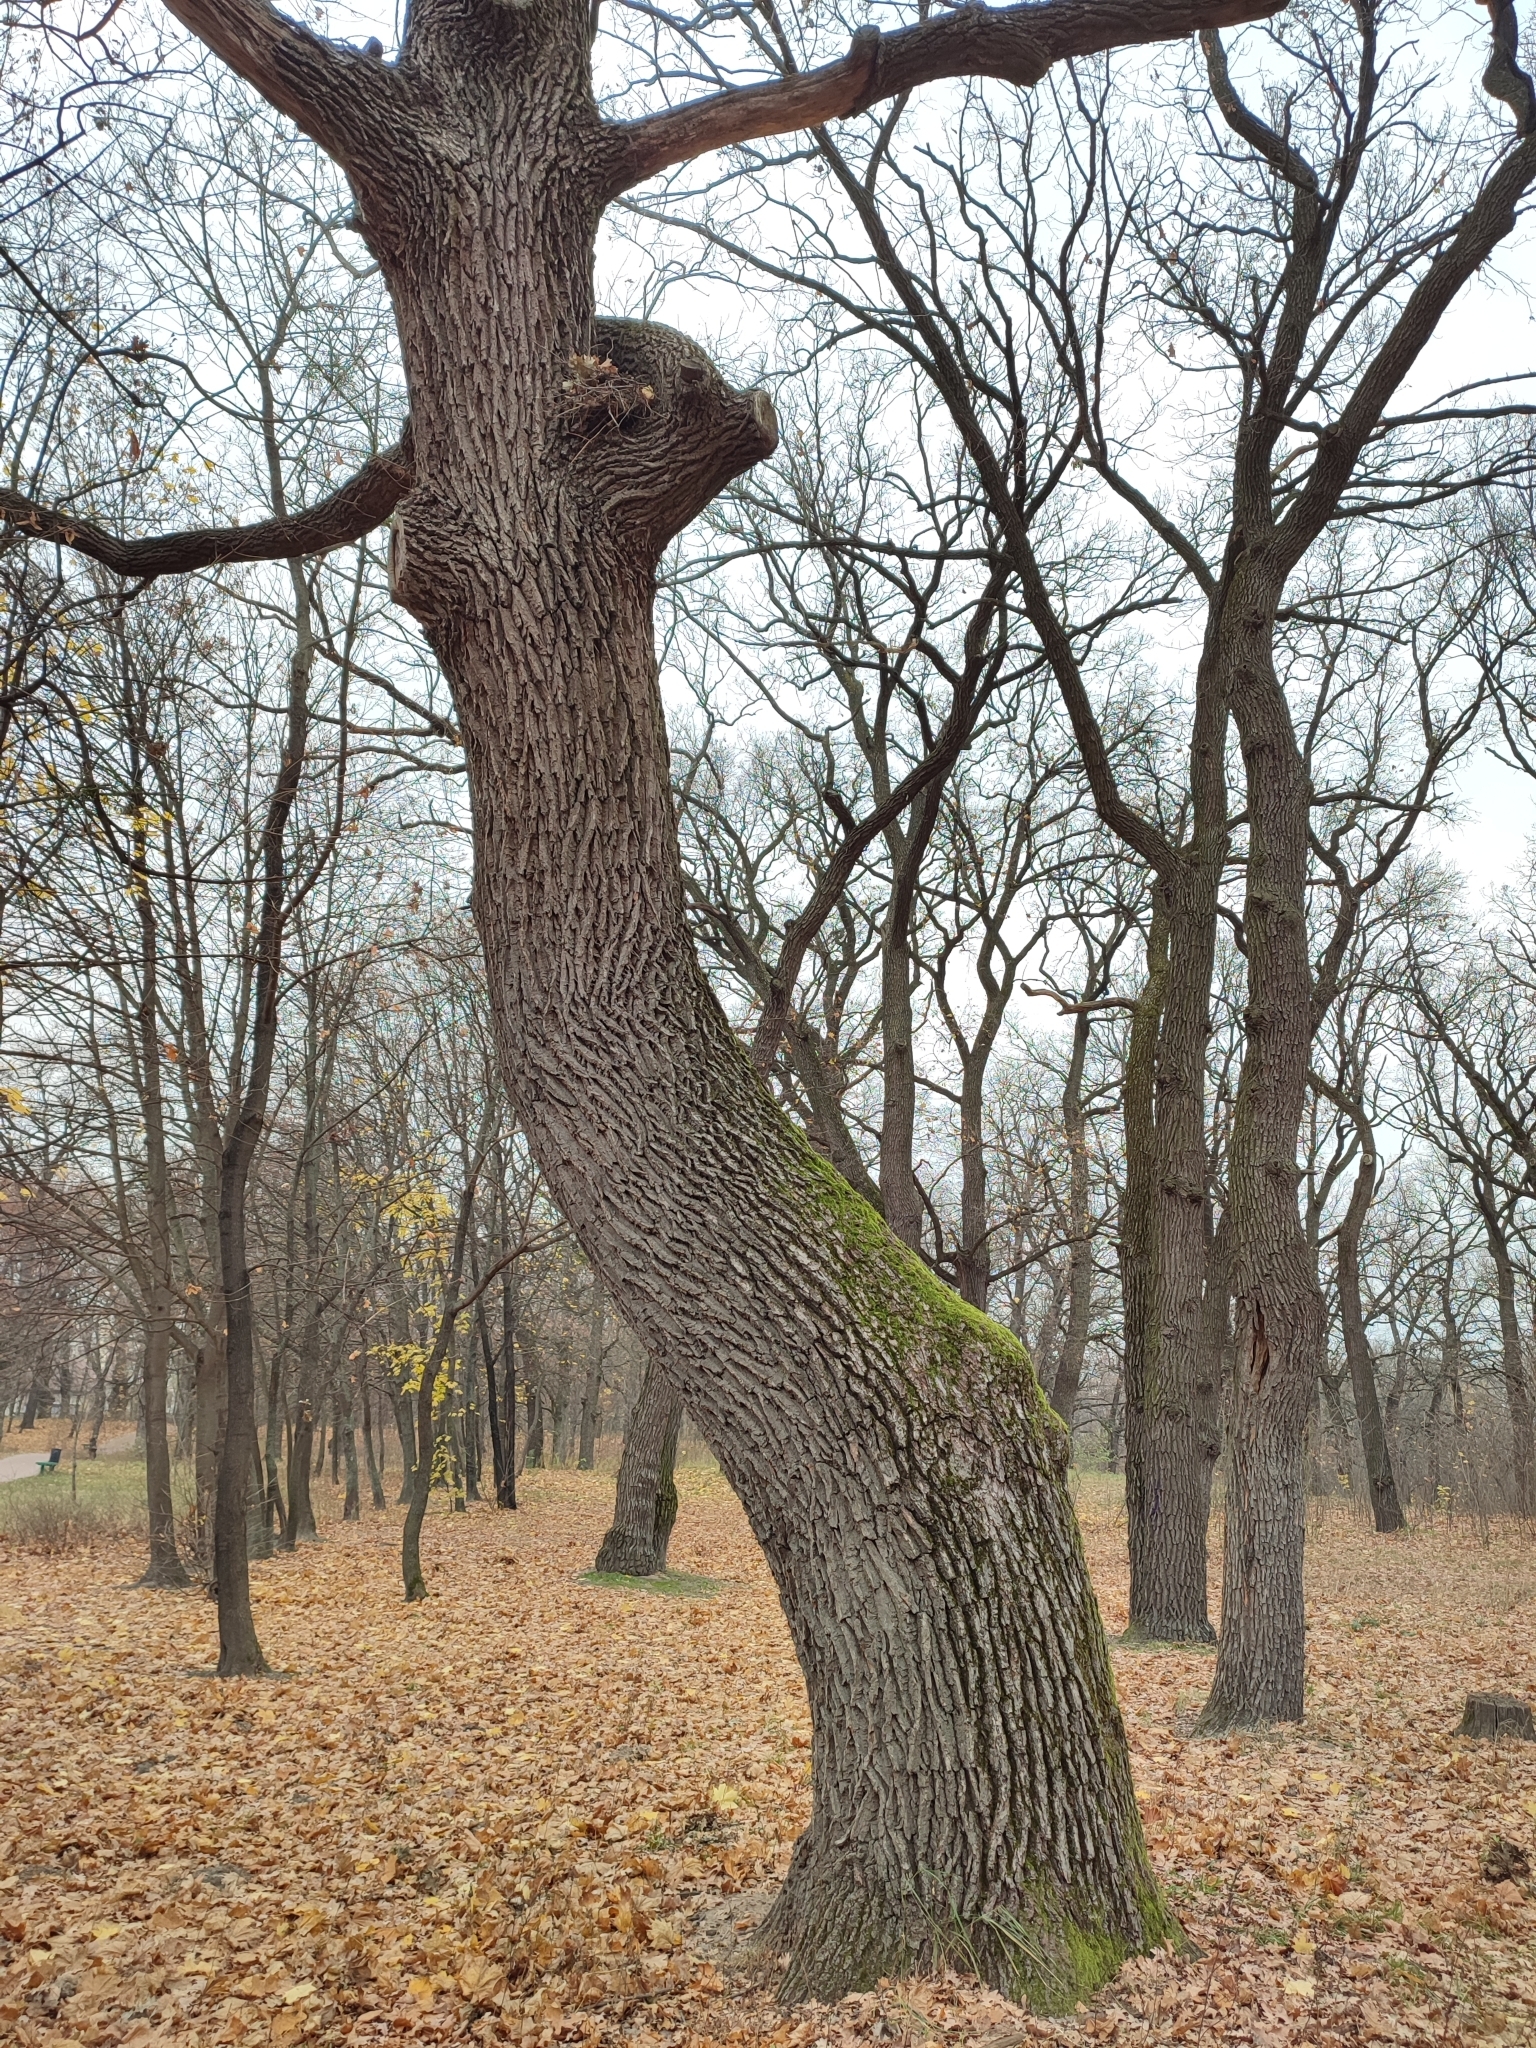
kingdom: Plantae
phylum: Tracheophyta
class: Magnoliopsida
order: Fagales
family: Fagaceae
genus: Quercus
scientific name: Quercus robur
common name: Pedunculate oak
